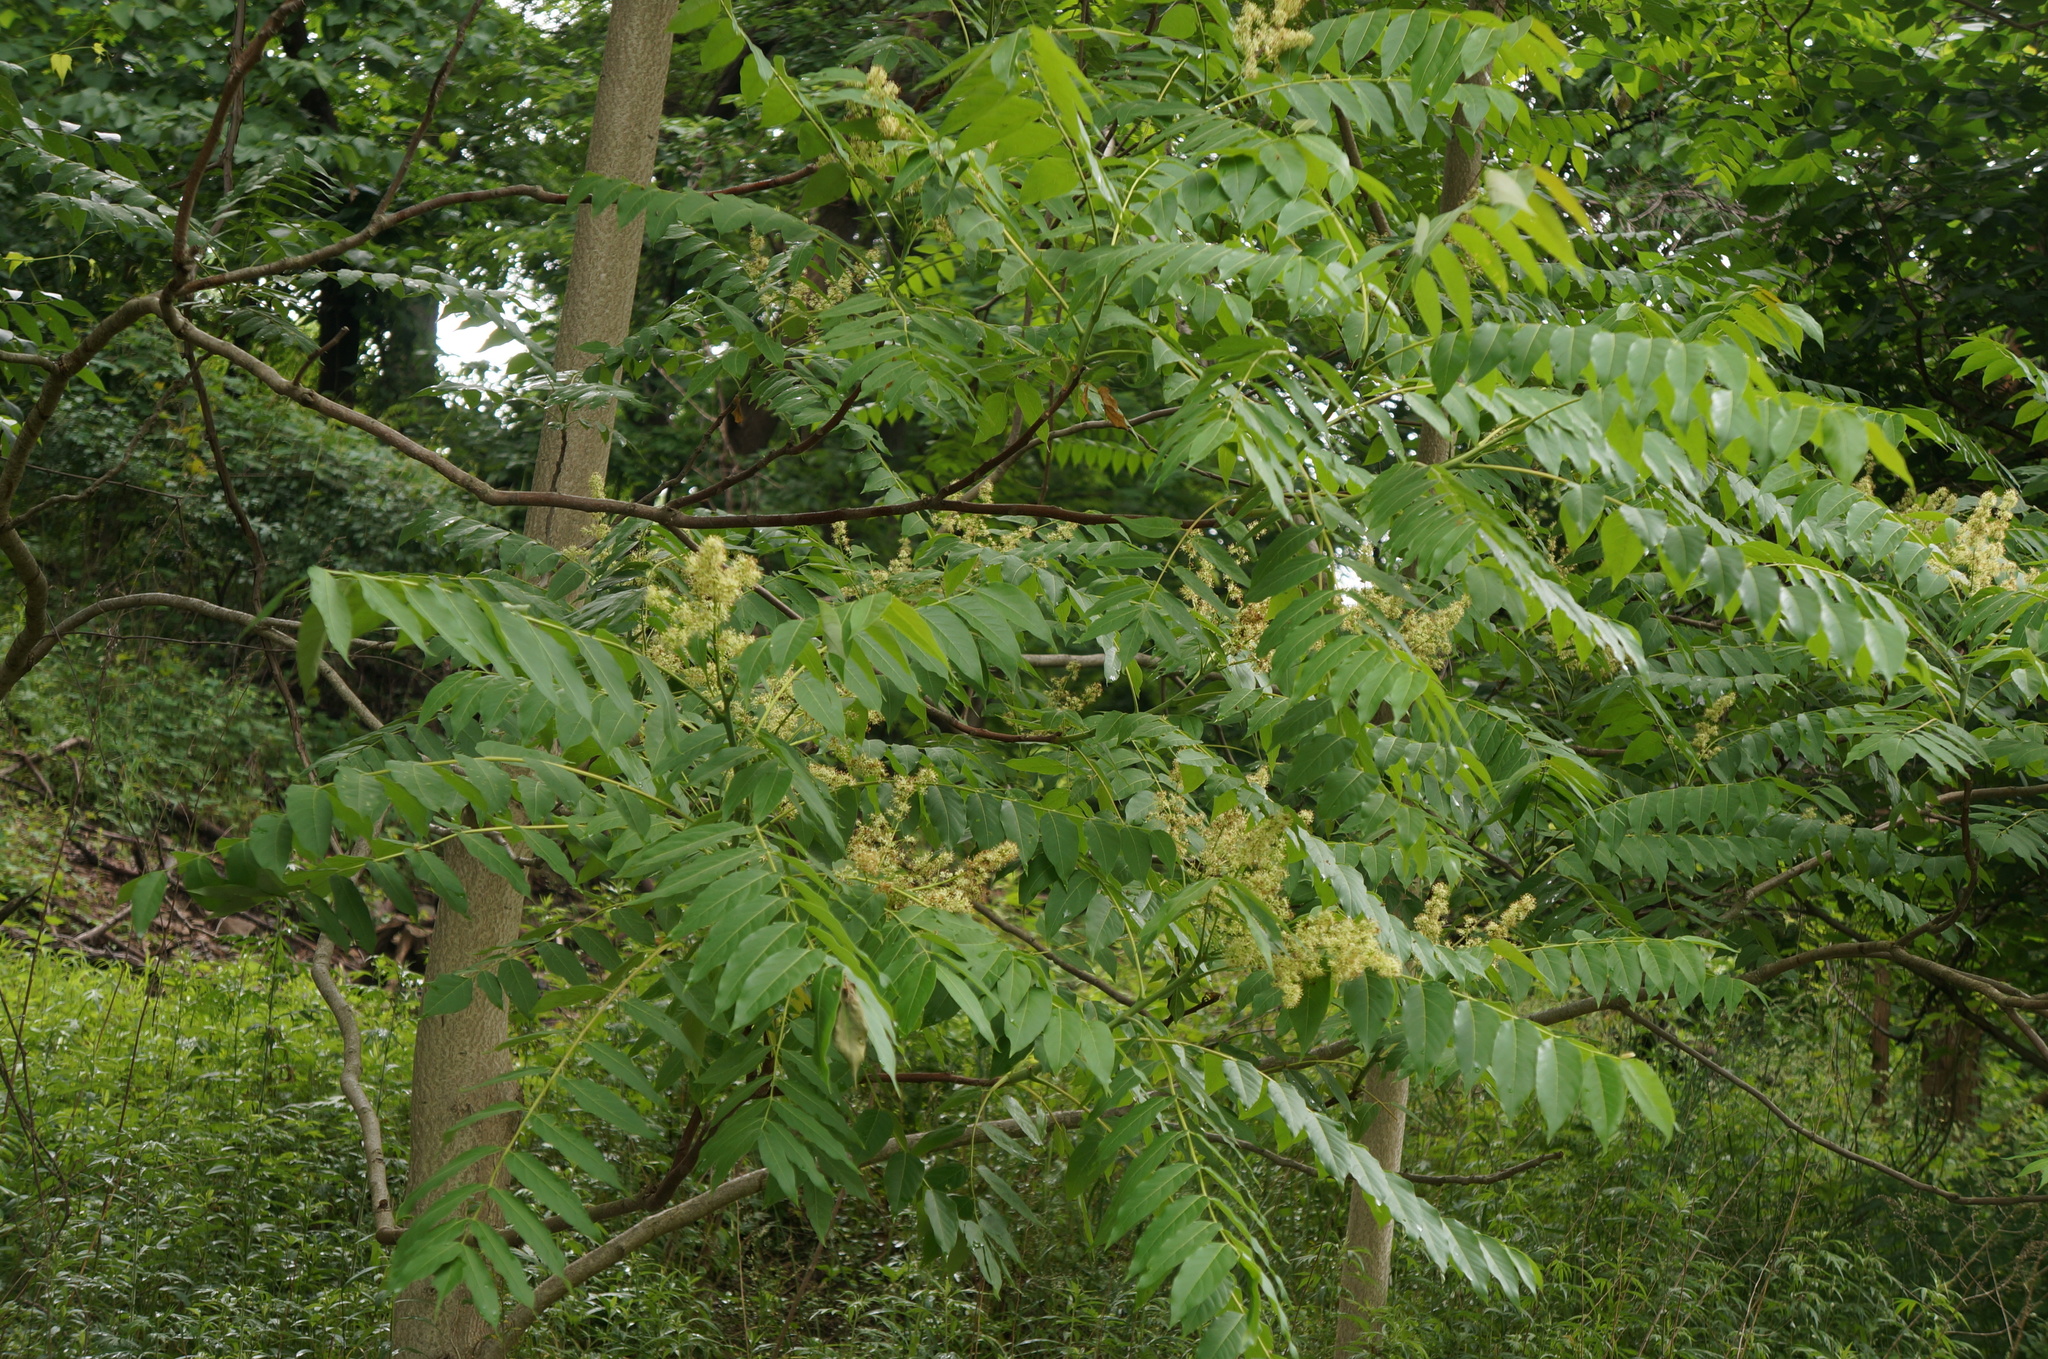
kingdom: Plantae
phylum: Tracheophyta
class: Magnoliopsida
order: Sapindales
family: Simaroubaceae
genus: Ailanthus
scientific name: Ailanthus altissima
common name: Tree-of-heaven
